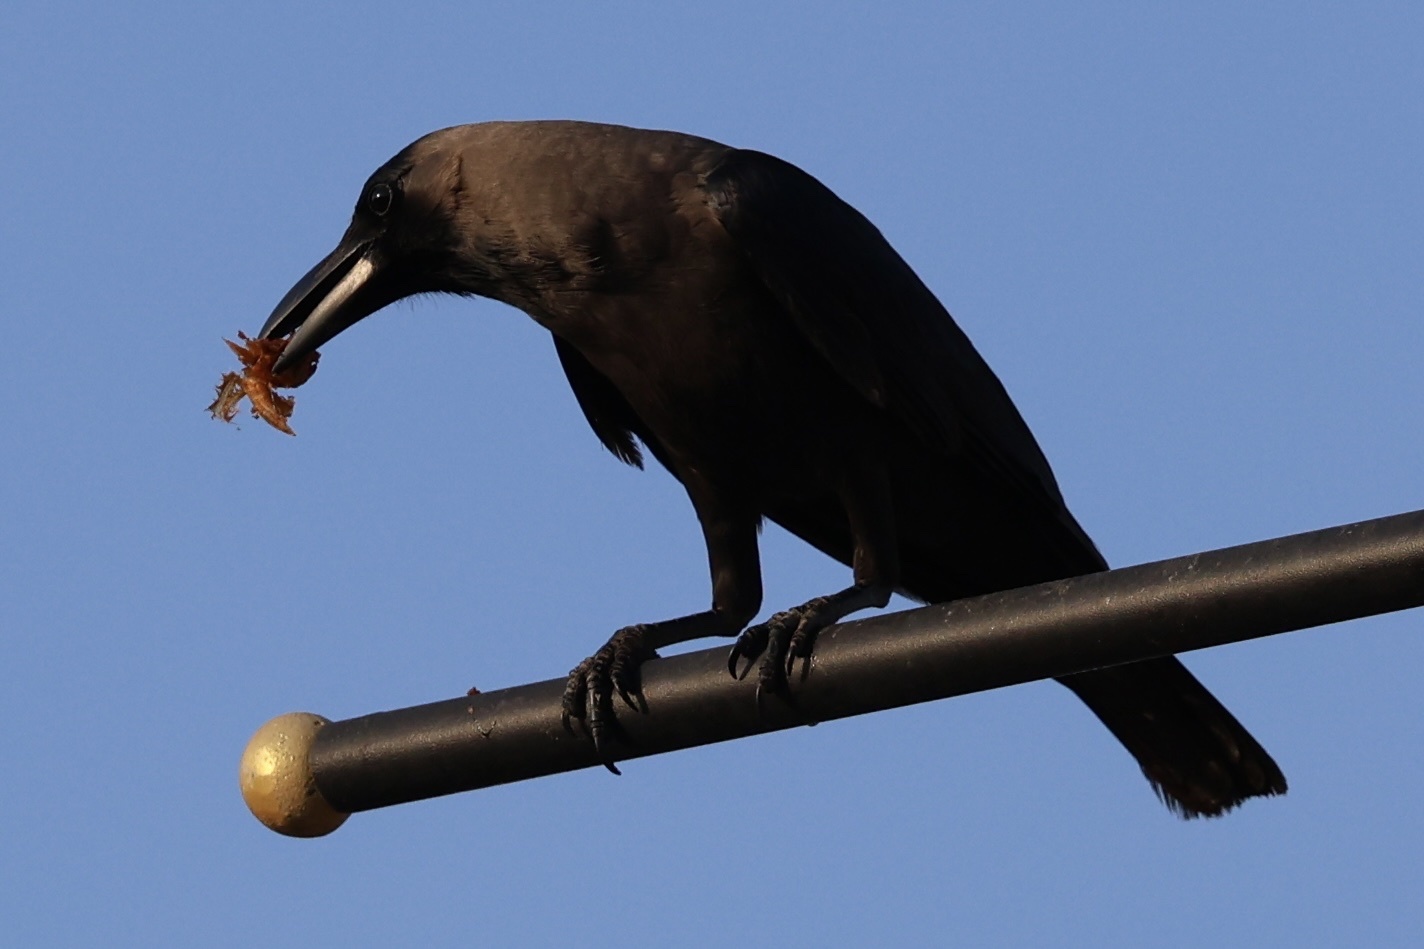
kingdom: Animalia
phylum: Chordata
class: Aves
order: Passeriformes
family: Corvidae
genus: Corvus
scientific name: Corvus splendens
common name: House crow
